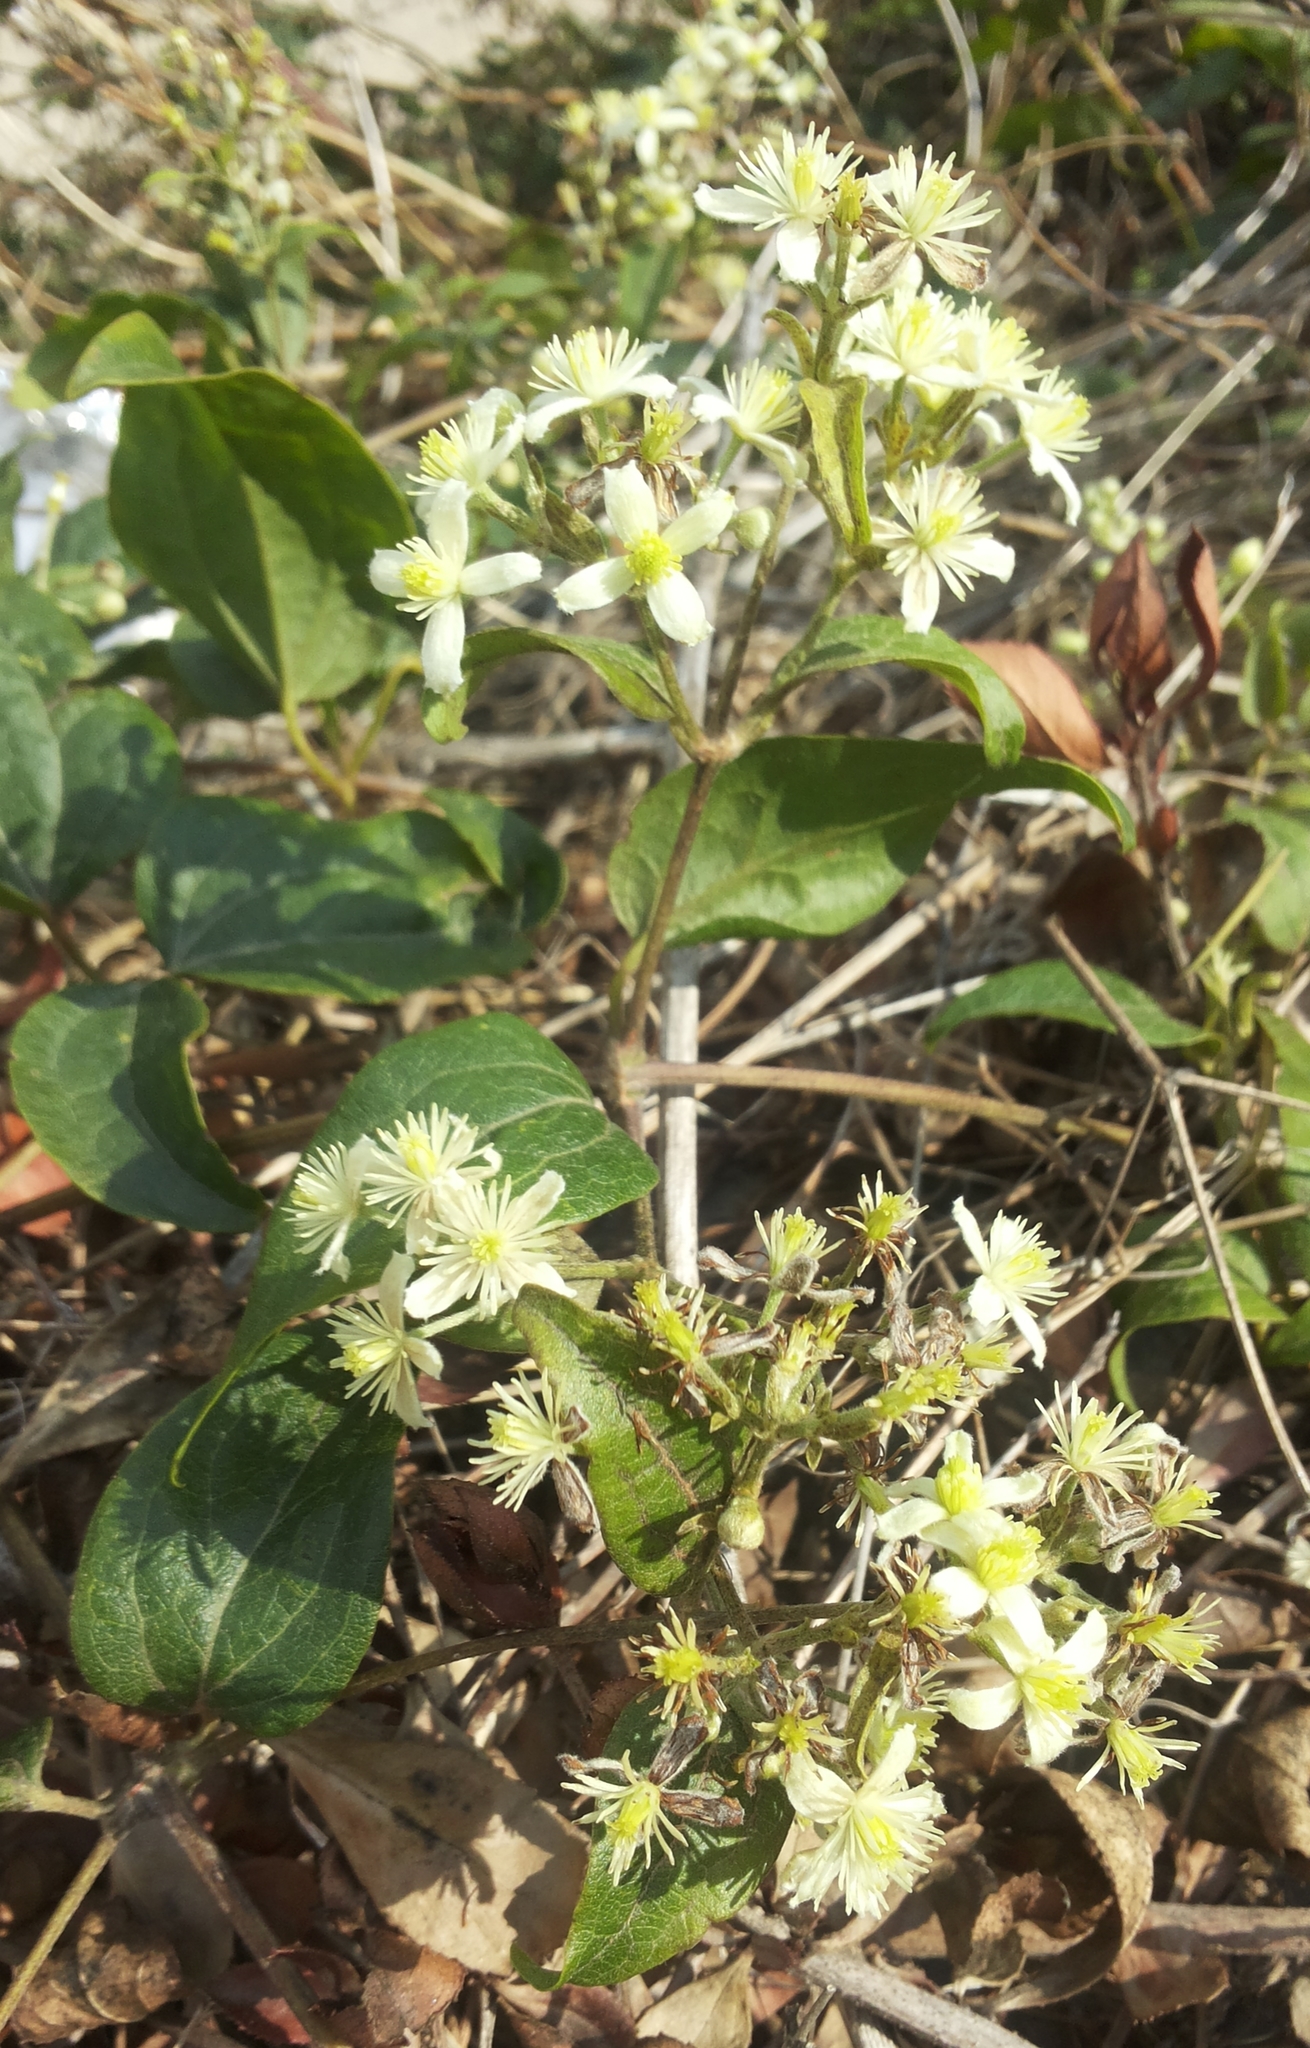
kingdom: Plantae
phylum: Tracheophyta
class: Magnoliopsida
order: Ranunculales
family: Ranunculaceae
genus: Clematis
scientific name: Clematis vitalba
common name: Evergreen clematis
